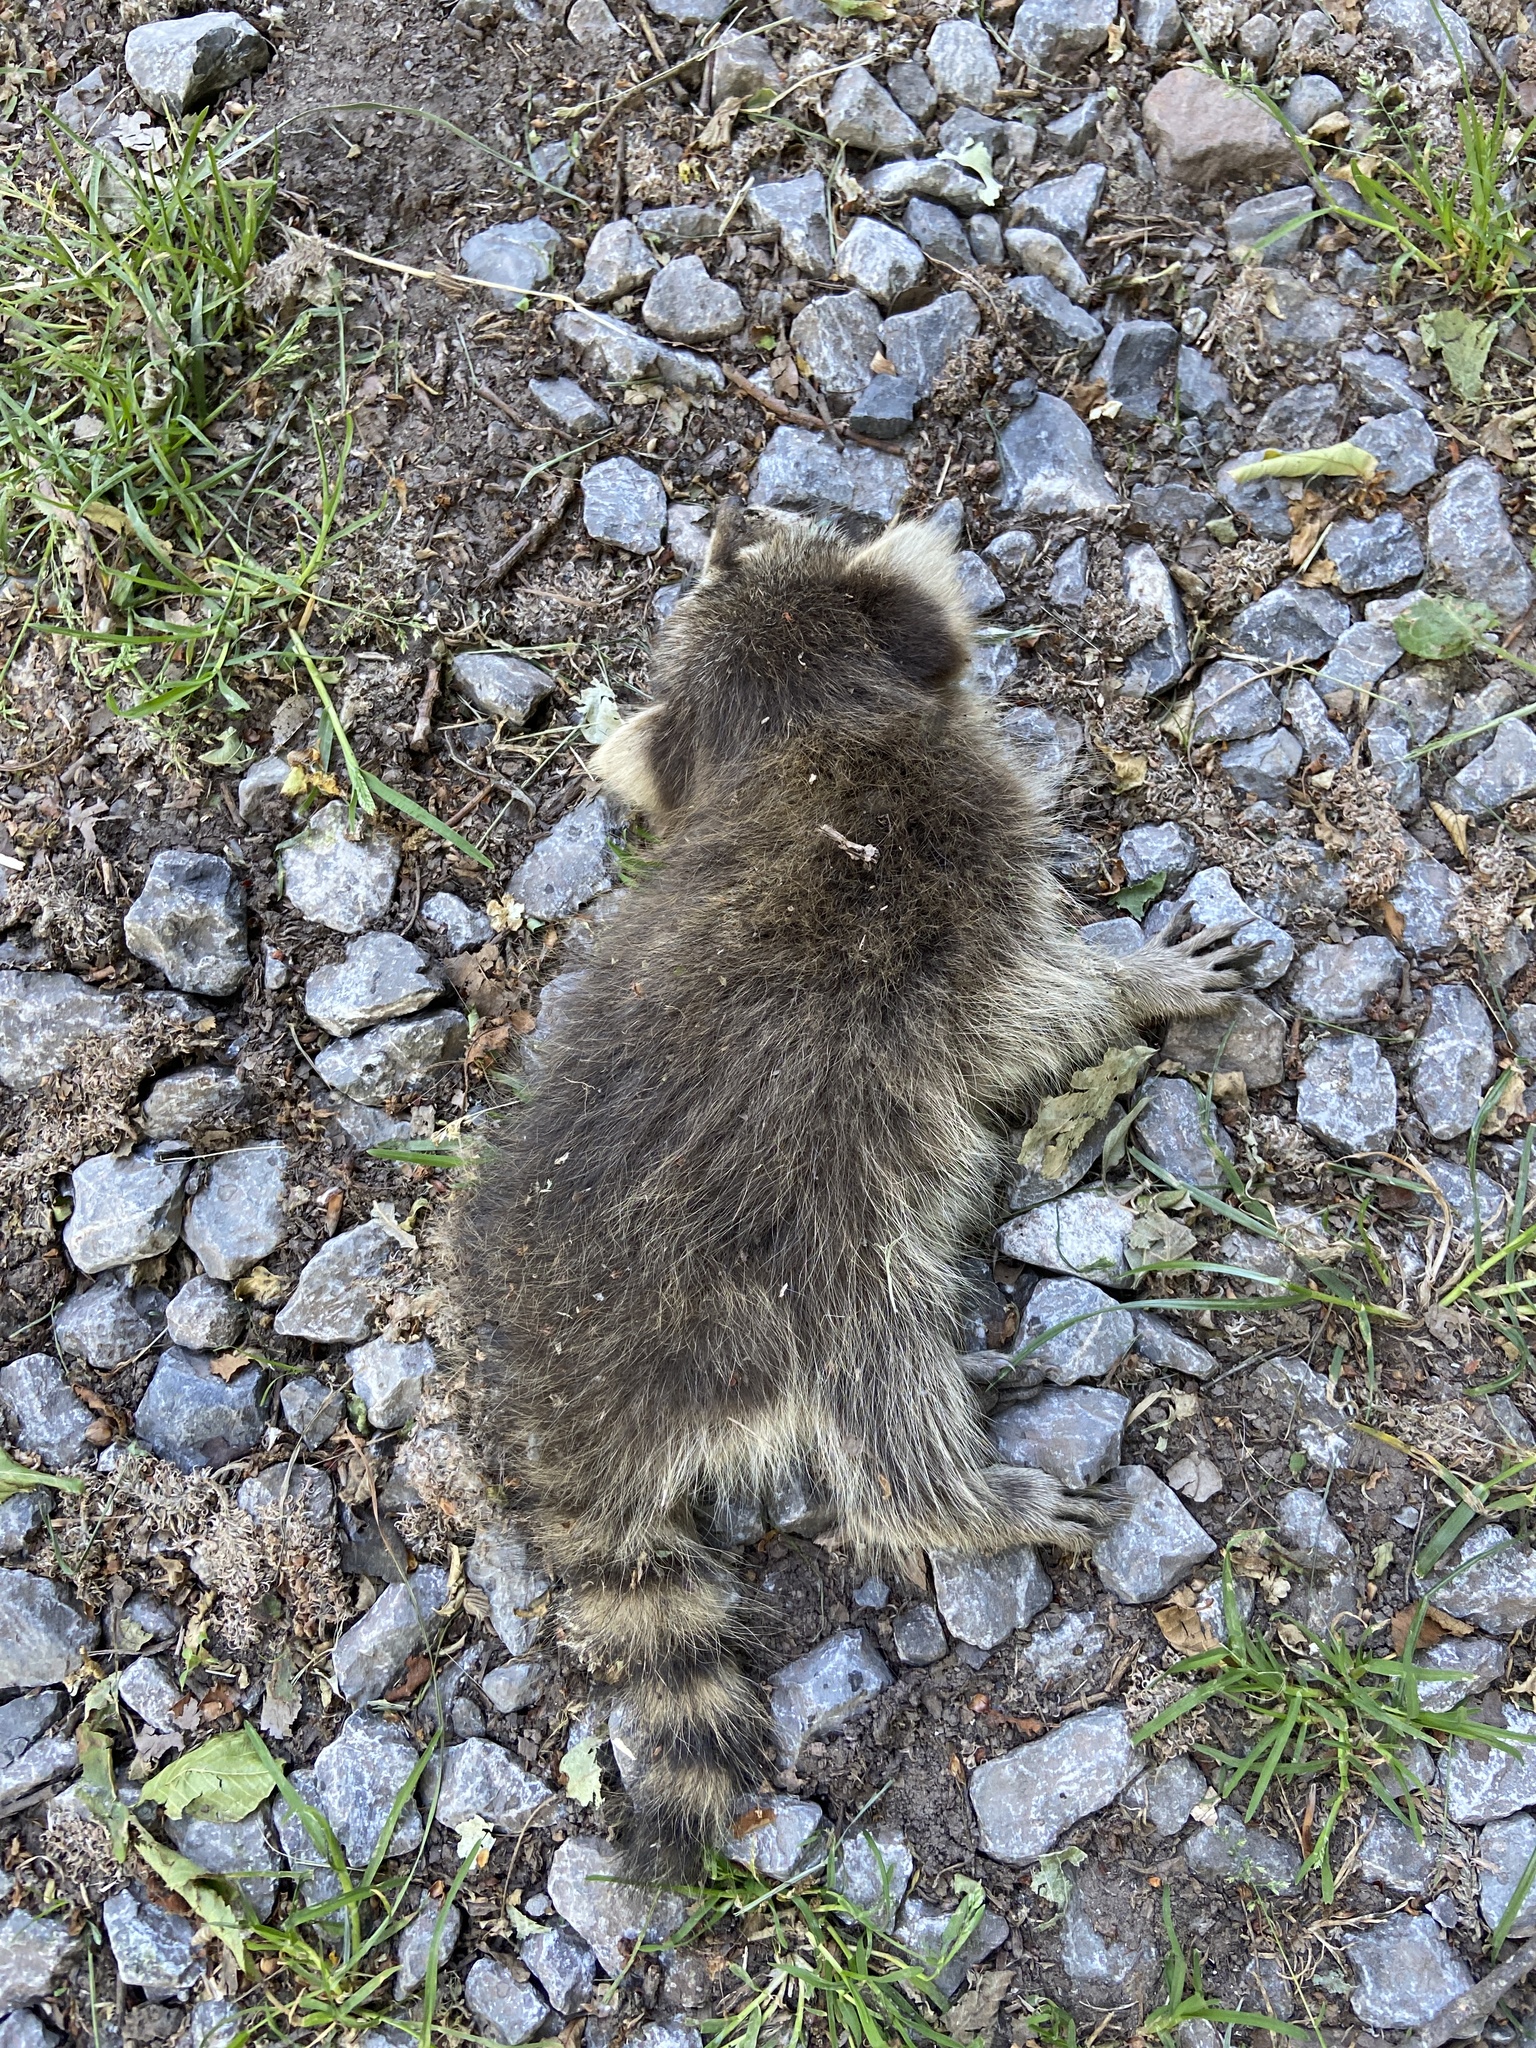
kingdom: Animalia
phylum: Chordata
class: Mammalia
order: Carnivora
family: Procyonidae
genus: Procyon
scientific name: Procyon lotor
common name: Raccoon
